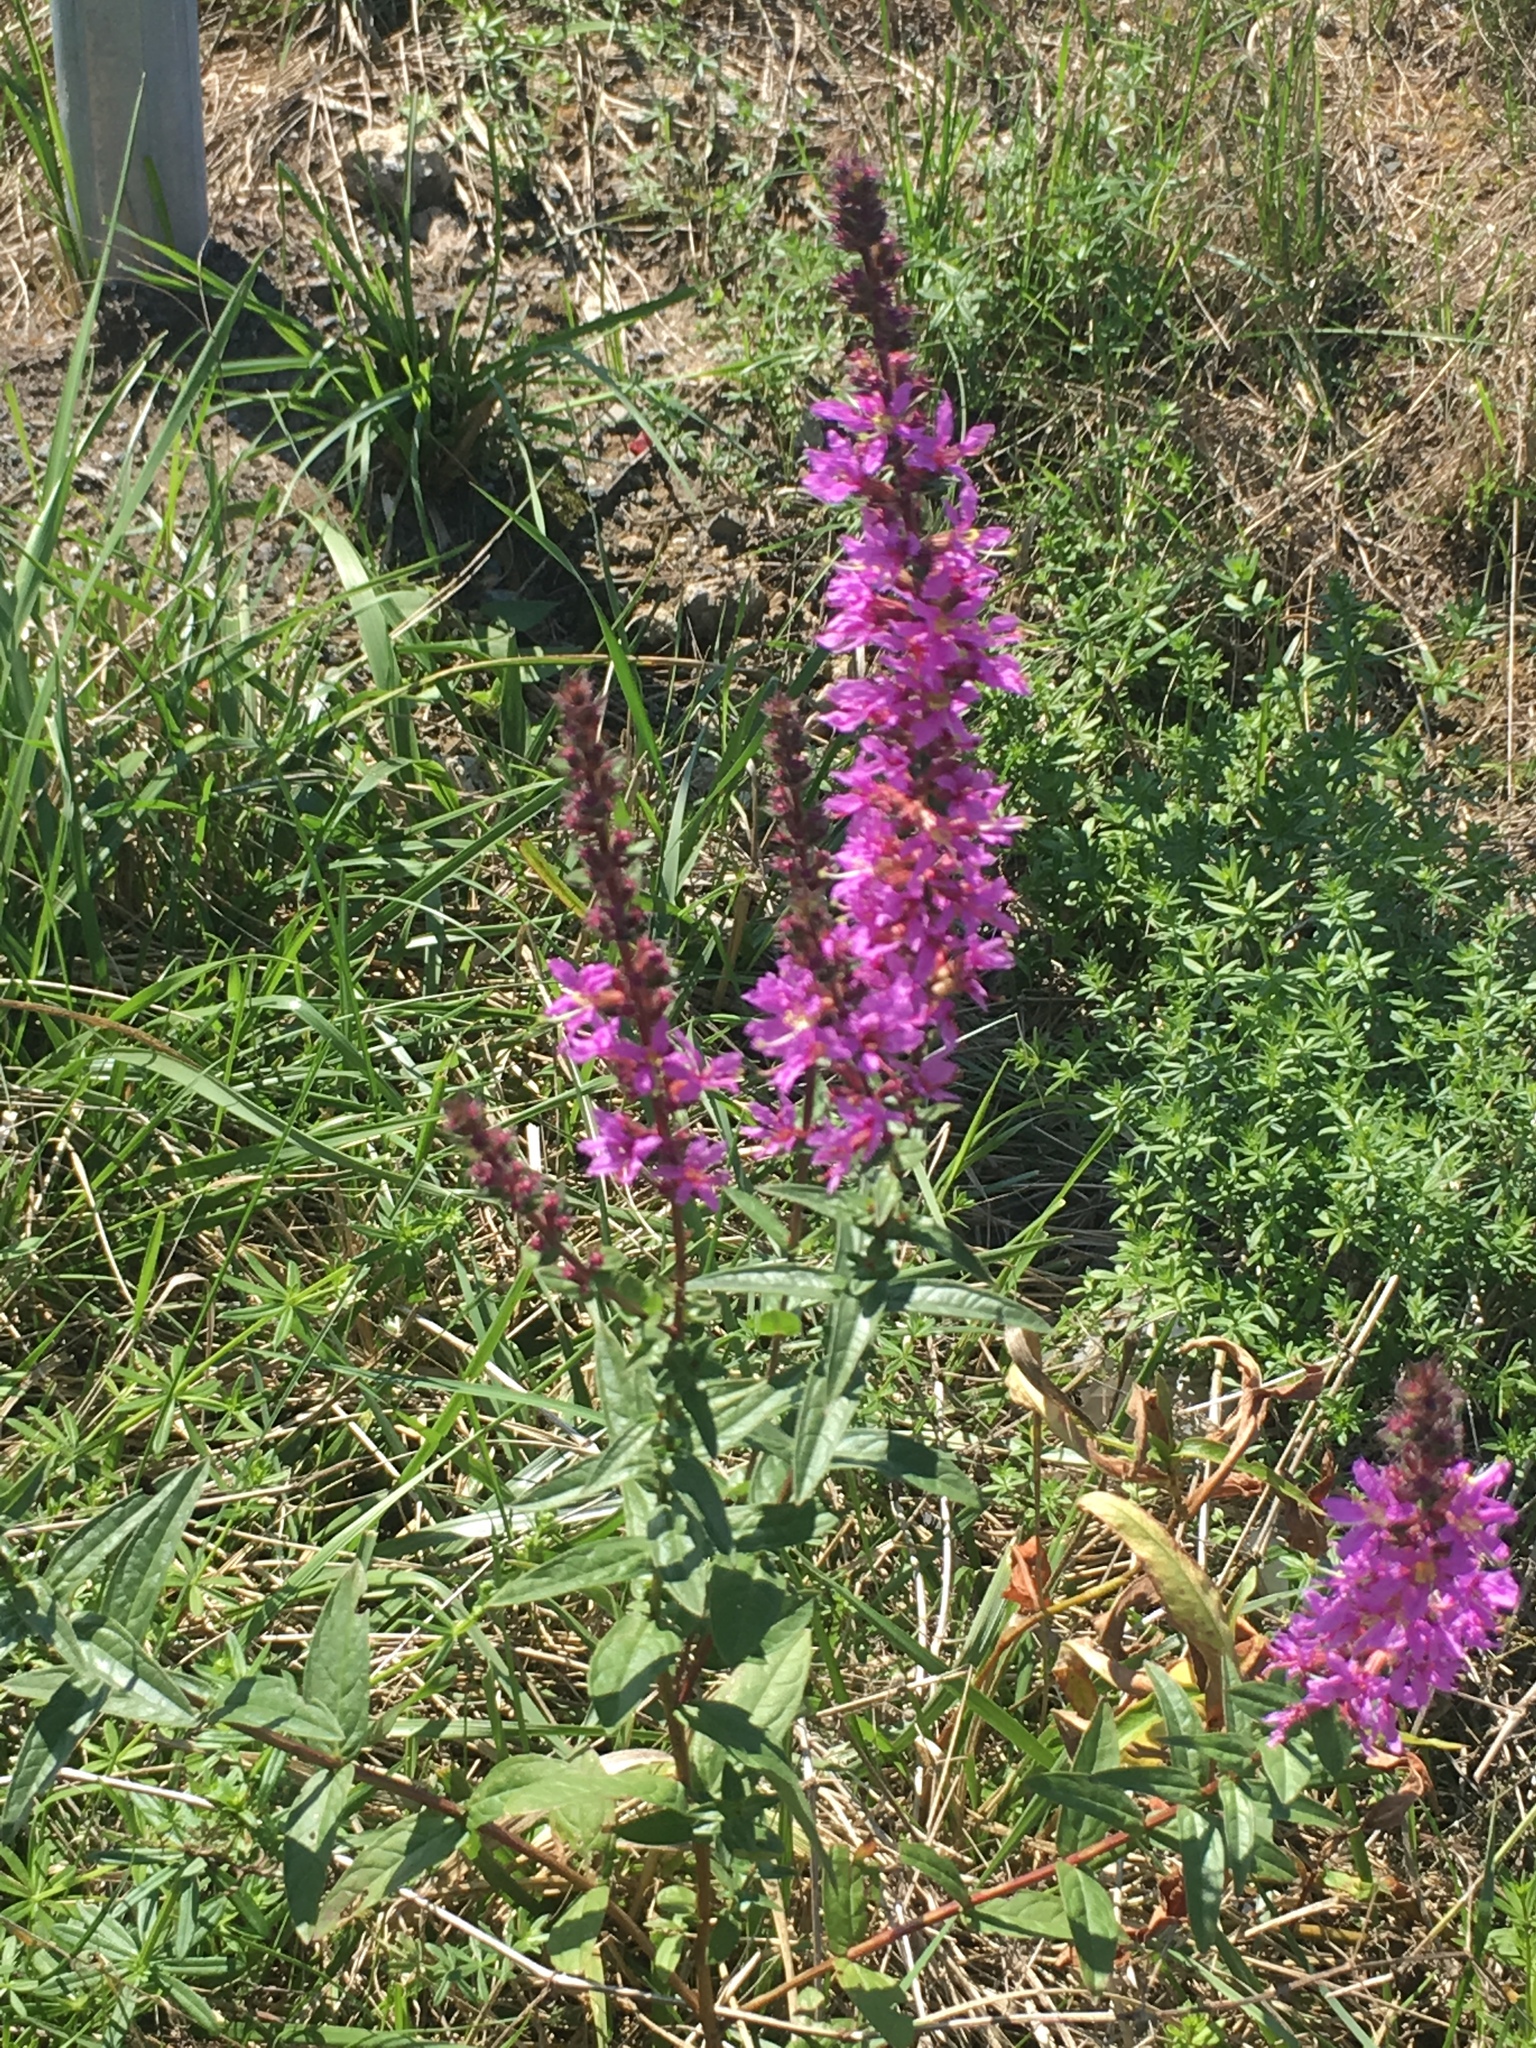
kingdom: Plantae
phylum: Tracheophyta
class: Magnoliopsida
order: Myrtales
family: Lythraceae
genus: Lythrum
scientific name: Lythrum salicaria
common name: Purple loosestrife
